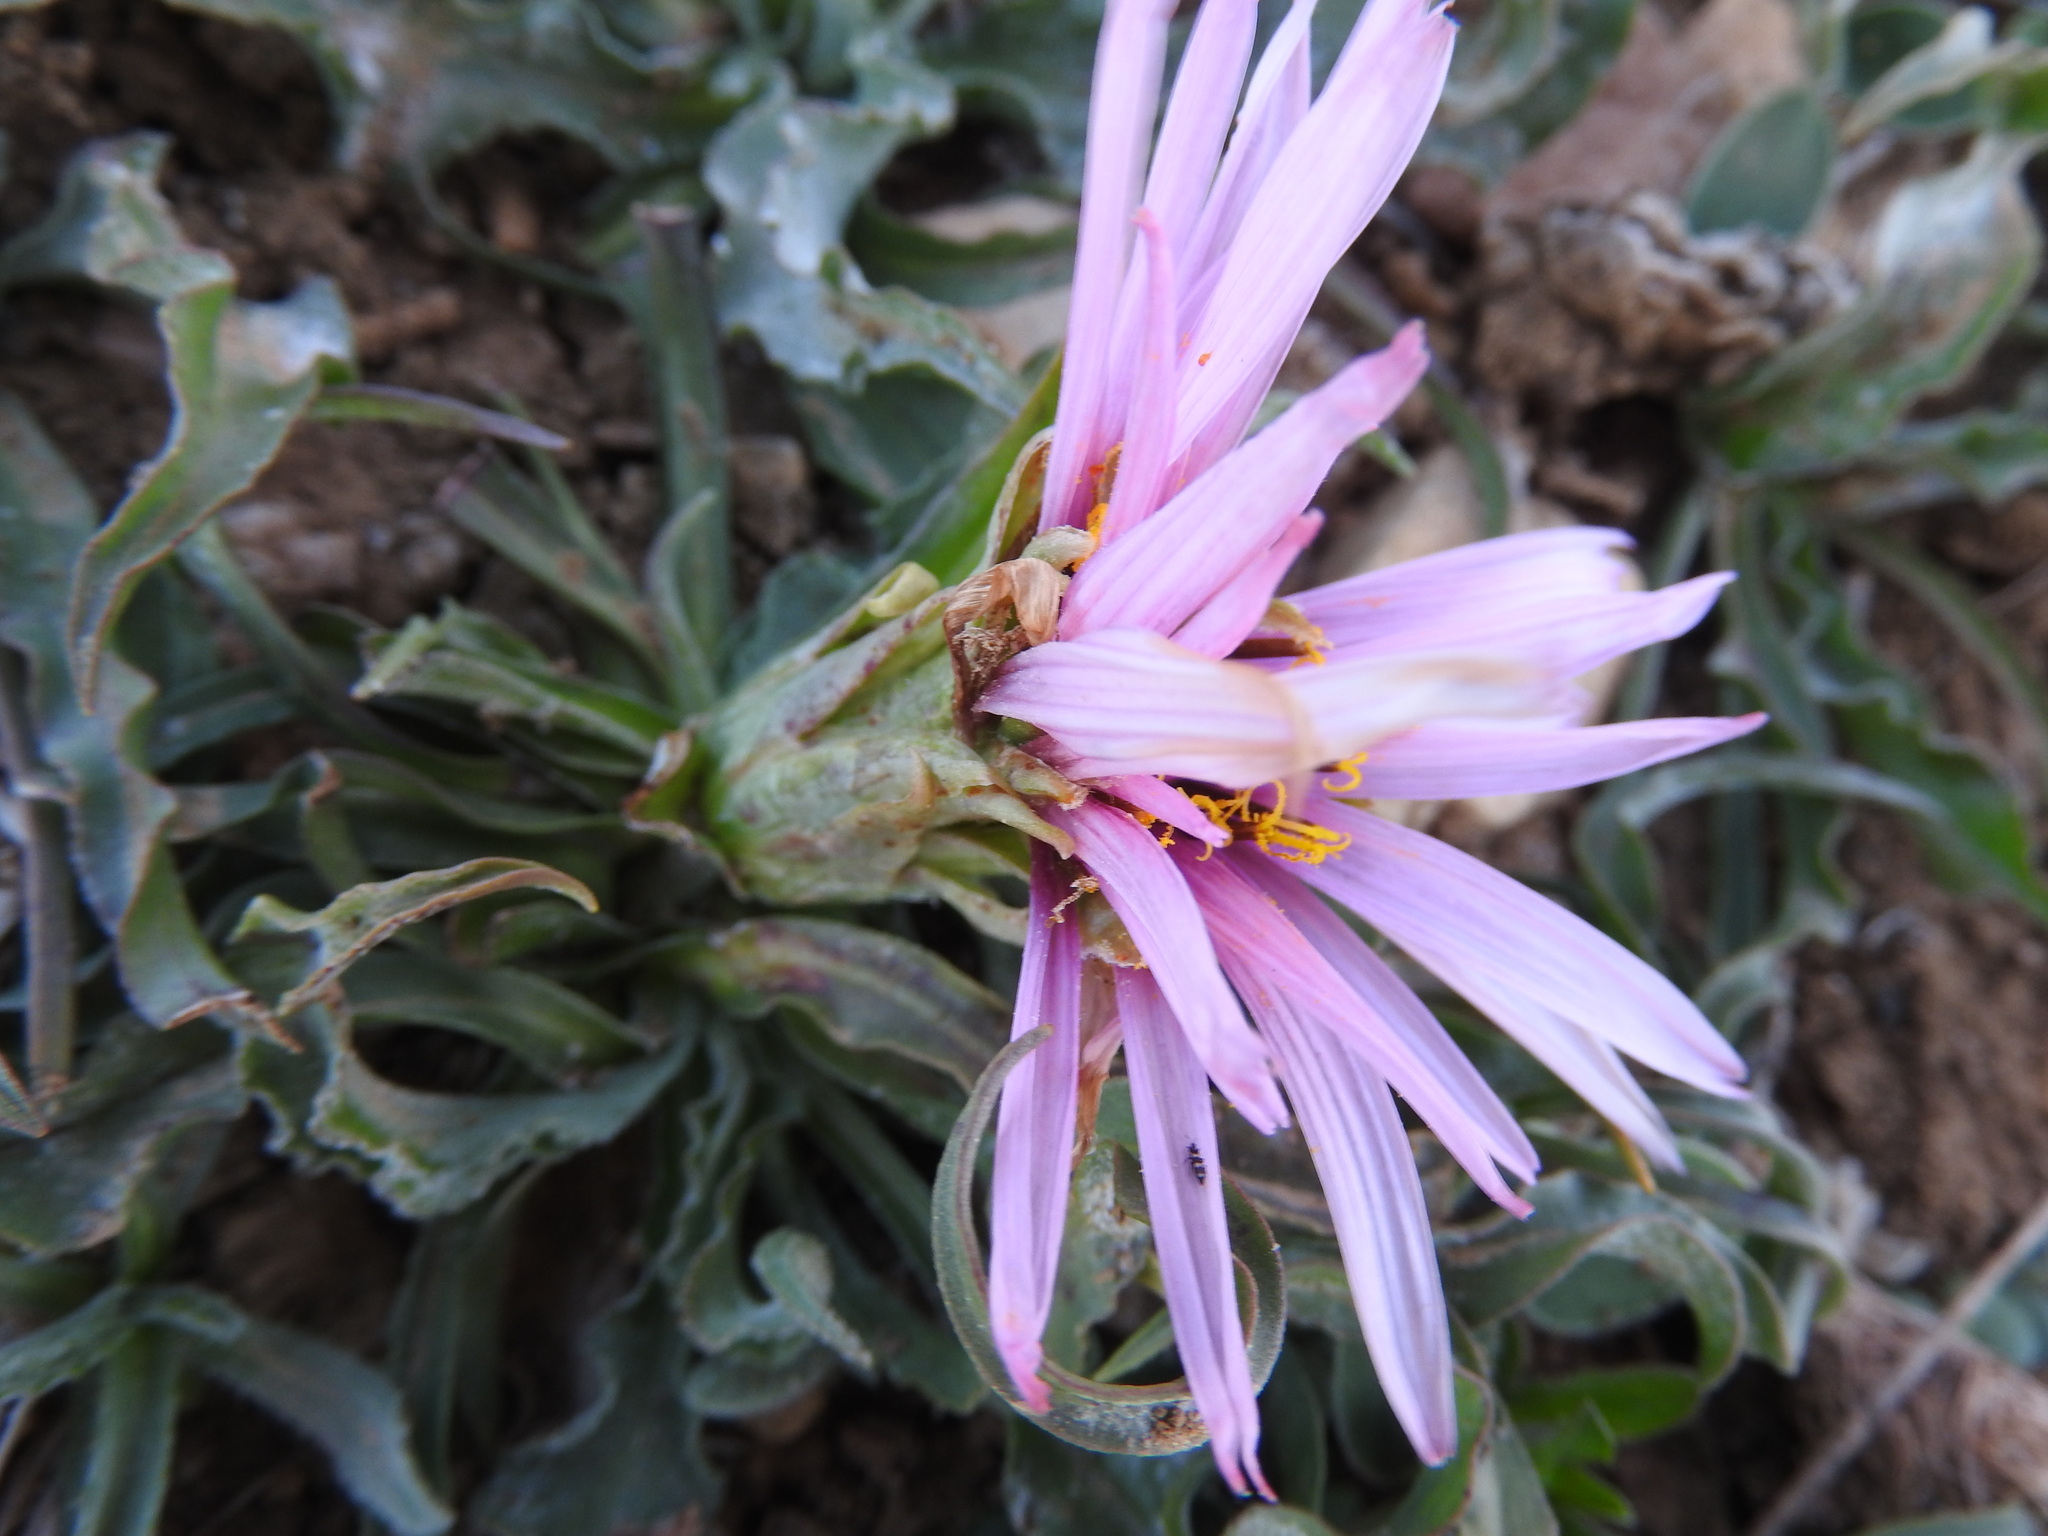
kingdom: Plantae
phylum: Tracheophyta
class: Magnoliopsida
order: Asterales
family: Asteraceae
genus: Pseudopodospermum
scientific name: Pseudopodospermum undulatum
